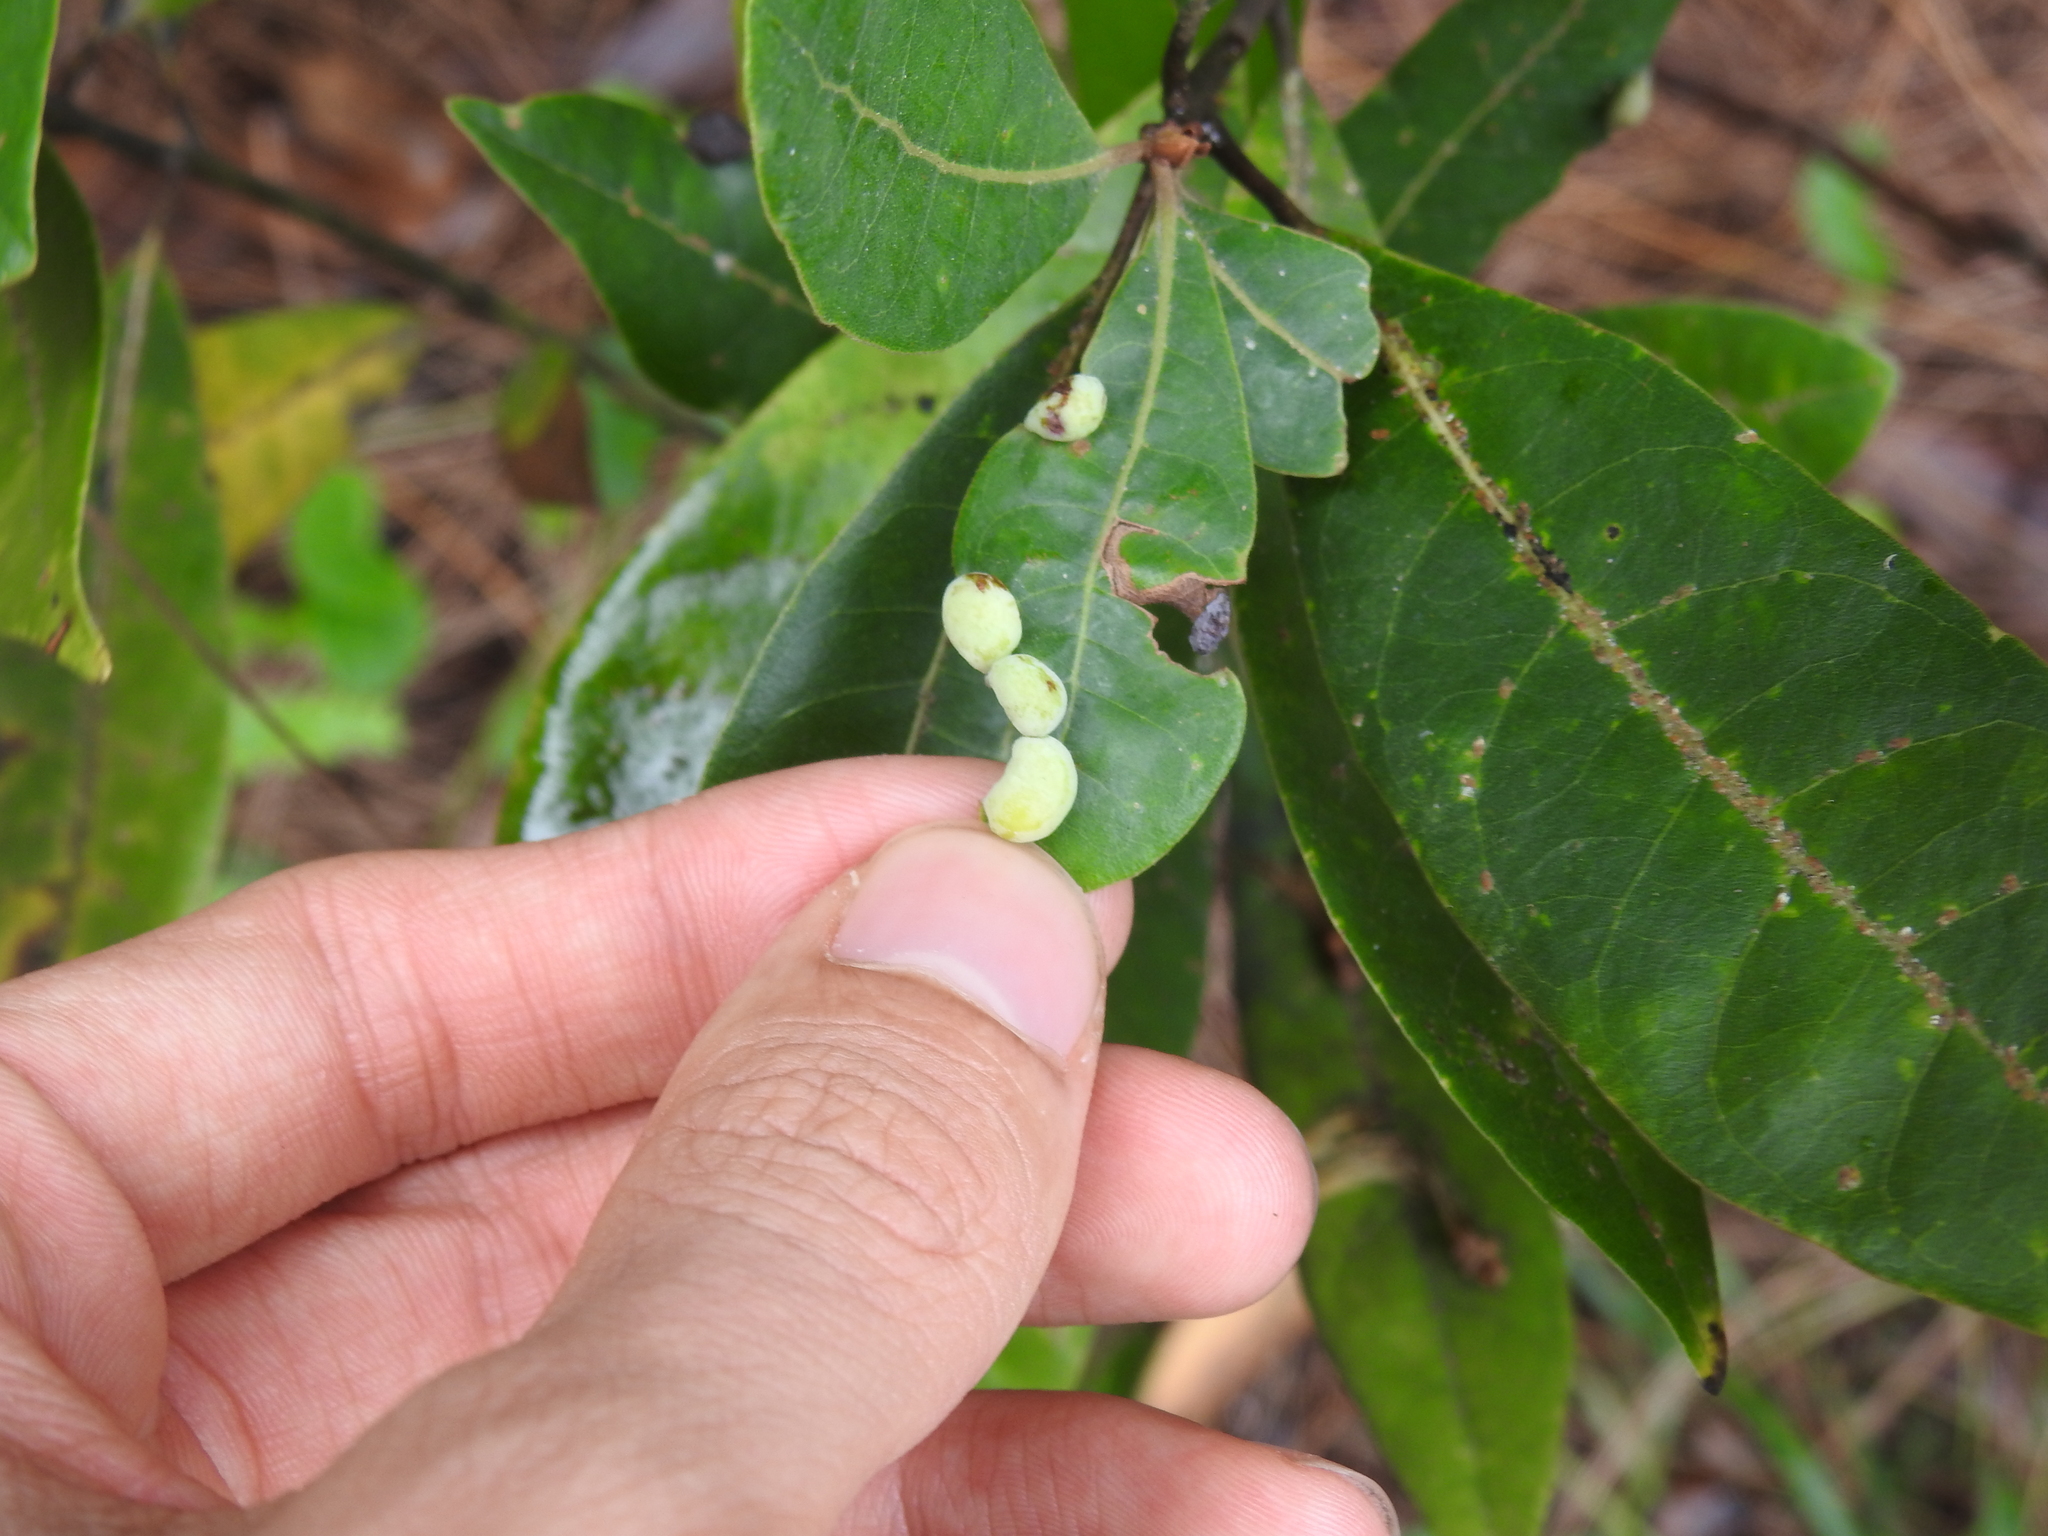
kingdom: Animalia
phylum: Arthropoda
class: Insecta
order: Hemiptera
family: Triozidae
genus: Trioza
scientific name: Trioza magnoliae
